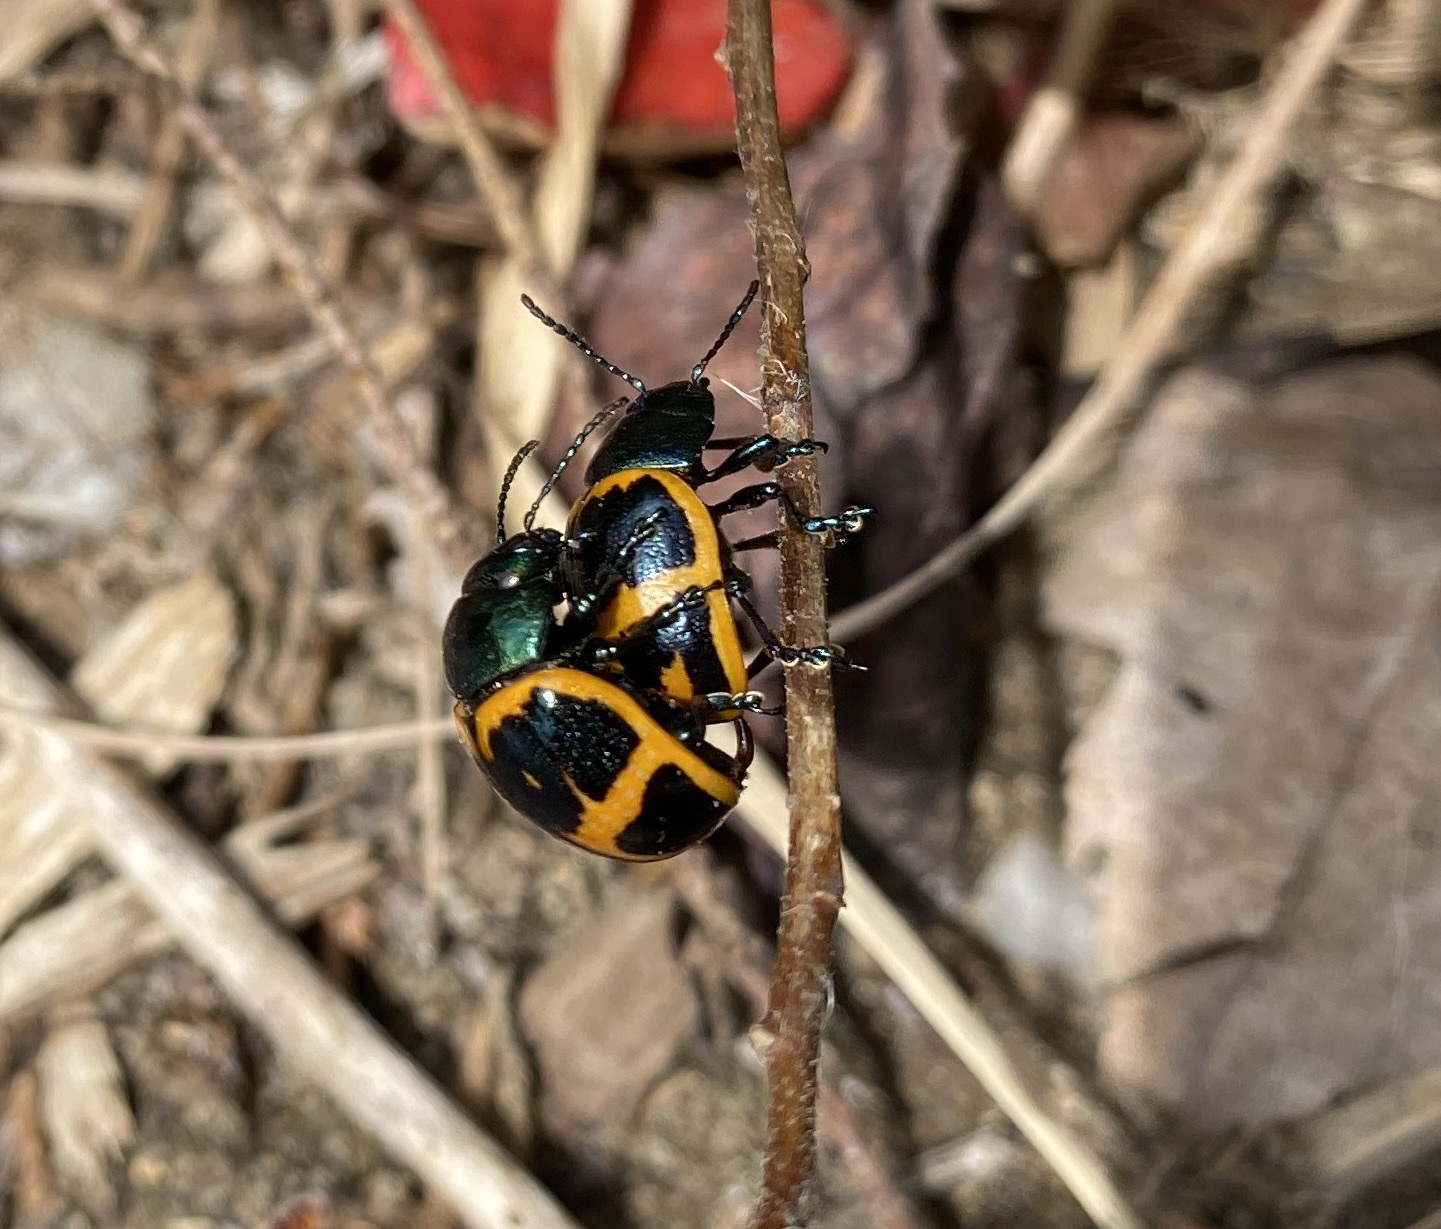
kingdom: Animalia
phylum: Arthropoda
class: Insecta
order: Coleoptera
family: Chrysomelidae
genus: Labidomera
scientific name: Labidomera clivicollis
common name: Swamp milkweed leaf beetle
